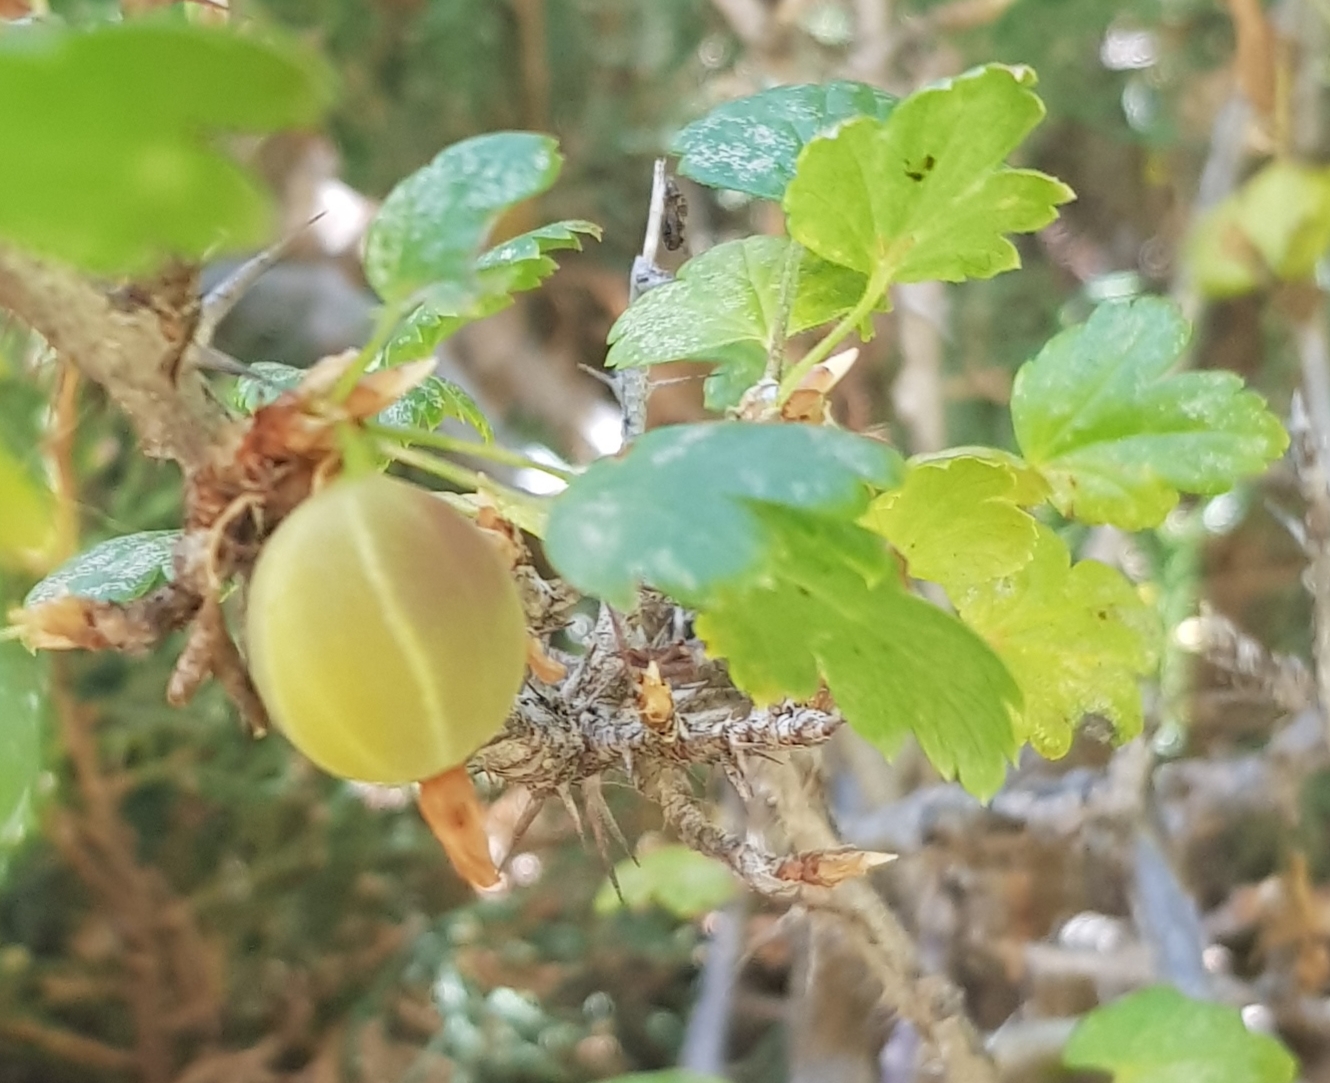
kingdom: Plantae
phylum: Tracheophyta
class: Magnoliopsida
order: Saxifragales
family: Grossulariaceae
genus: Ribes
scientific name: Ribes aciculare
